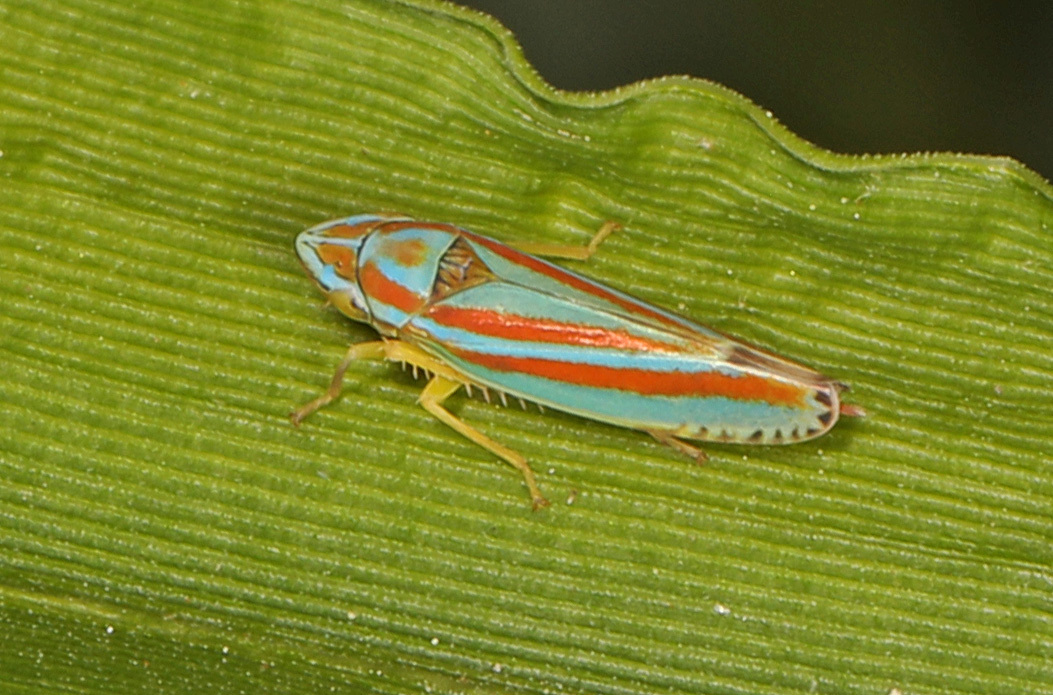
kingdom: Animalia
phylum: Arthropoda
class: Insecta
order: Hemiptera
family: Cicadellidae
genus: Graphocephala
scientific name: Graphocephala versuta
